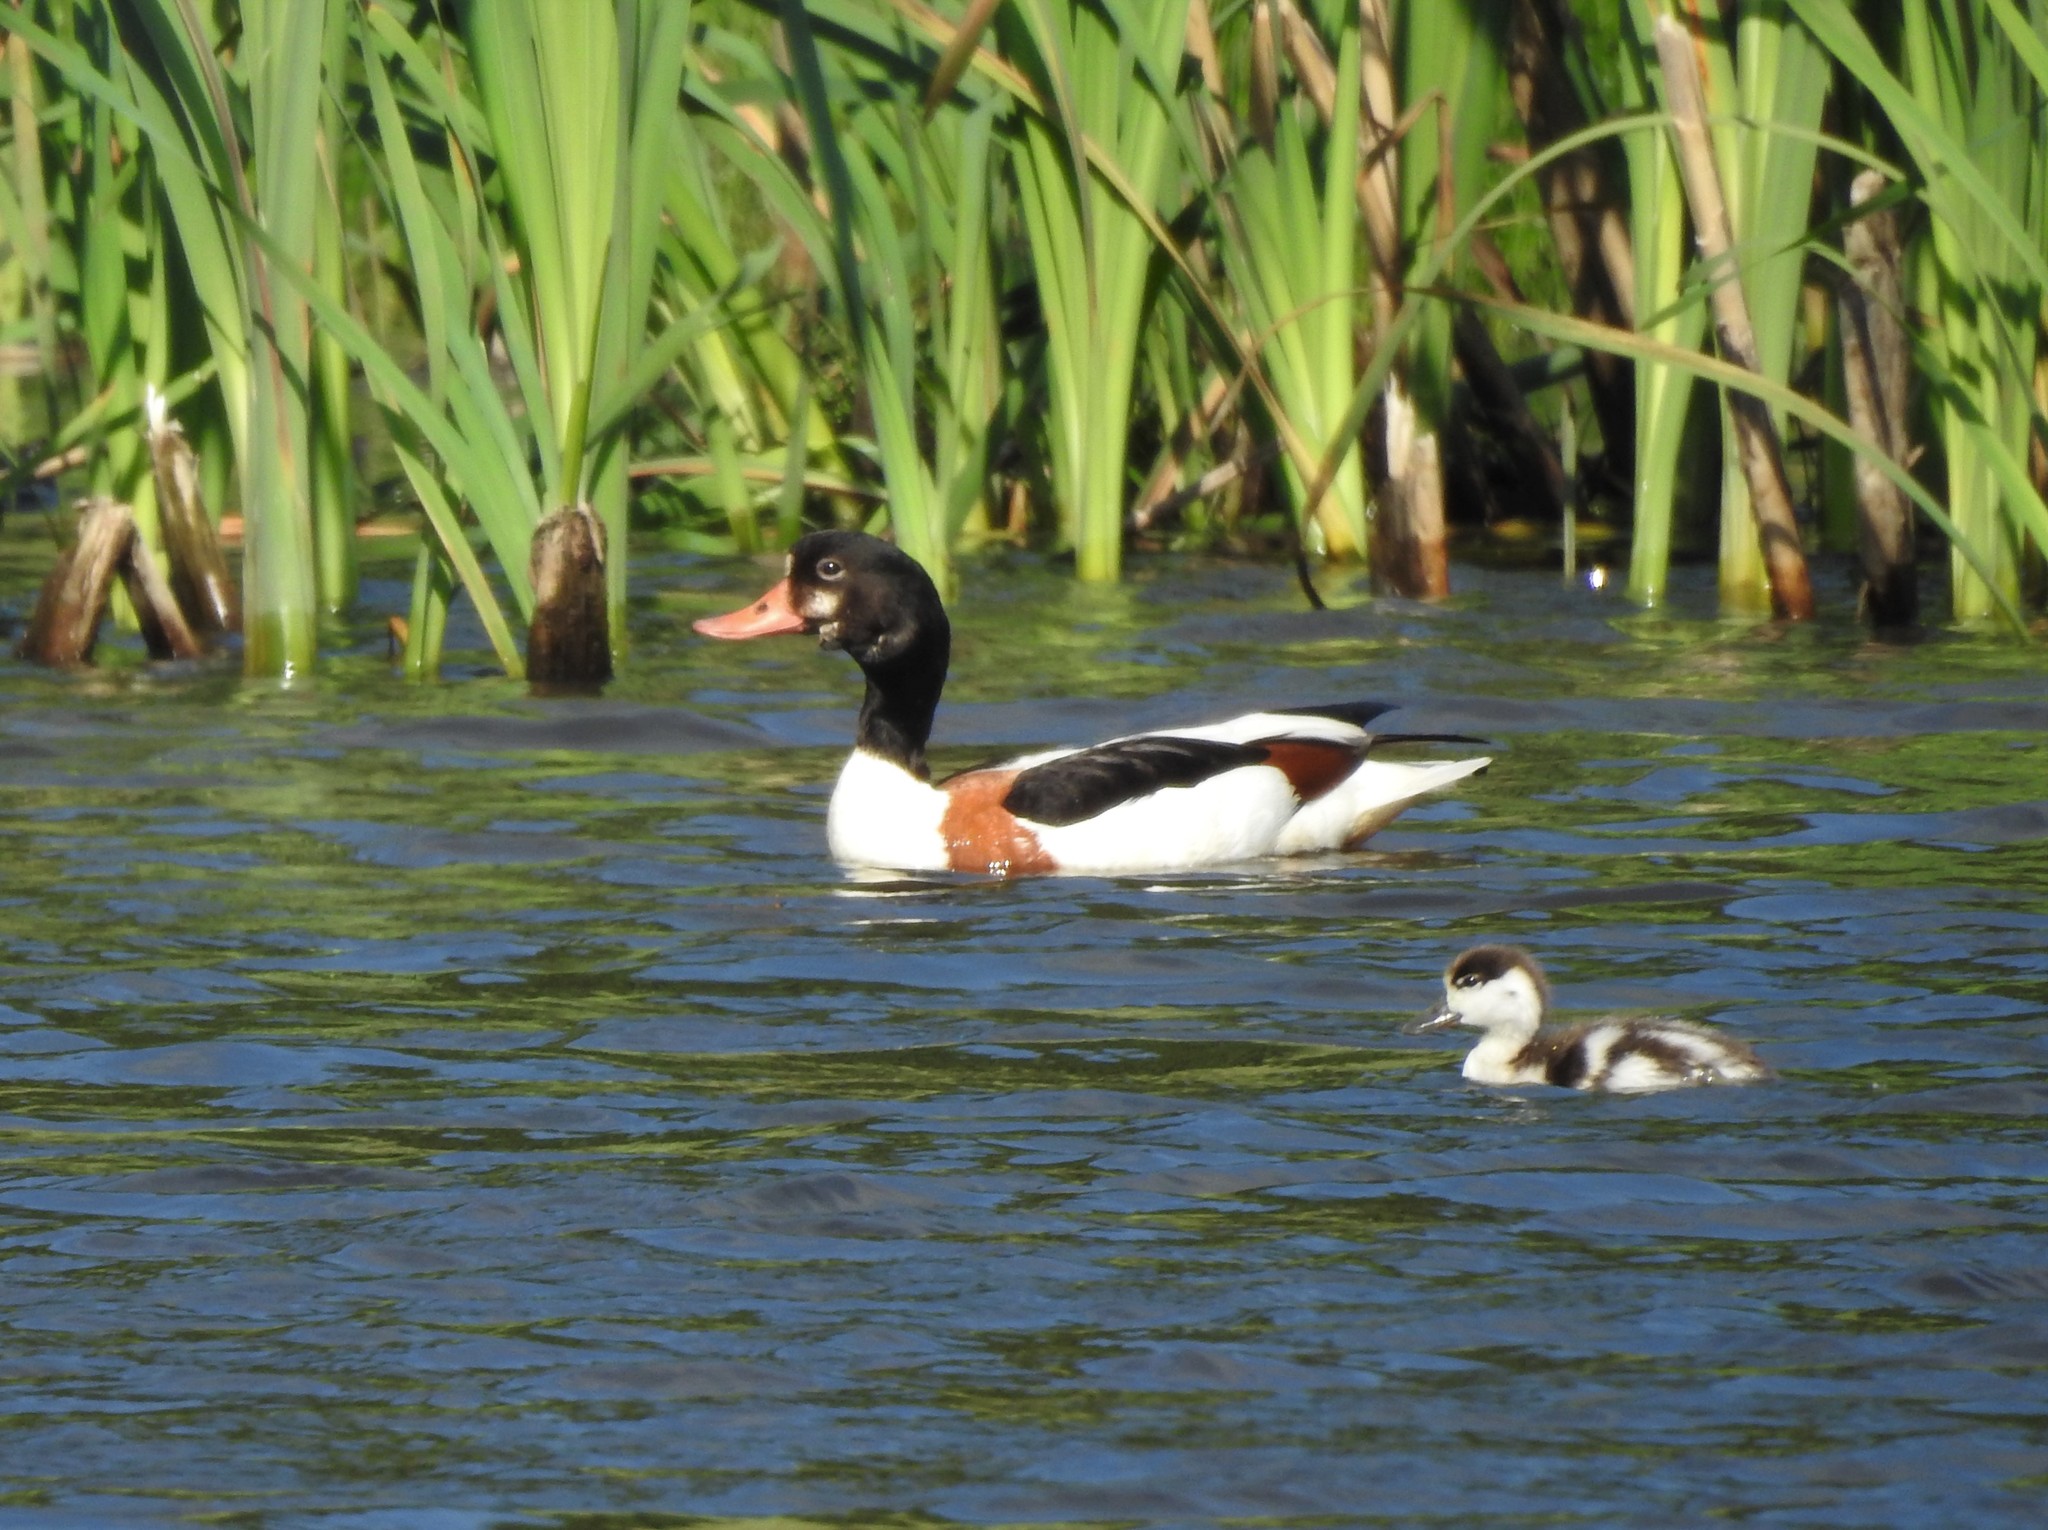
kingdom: Animalia
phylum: Chordata
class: Aves
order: Anseriformes
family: Anatidae
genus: Tadorna
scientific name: Tadorna tadorna
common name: Common shelduck
